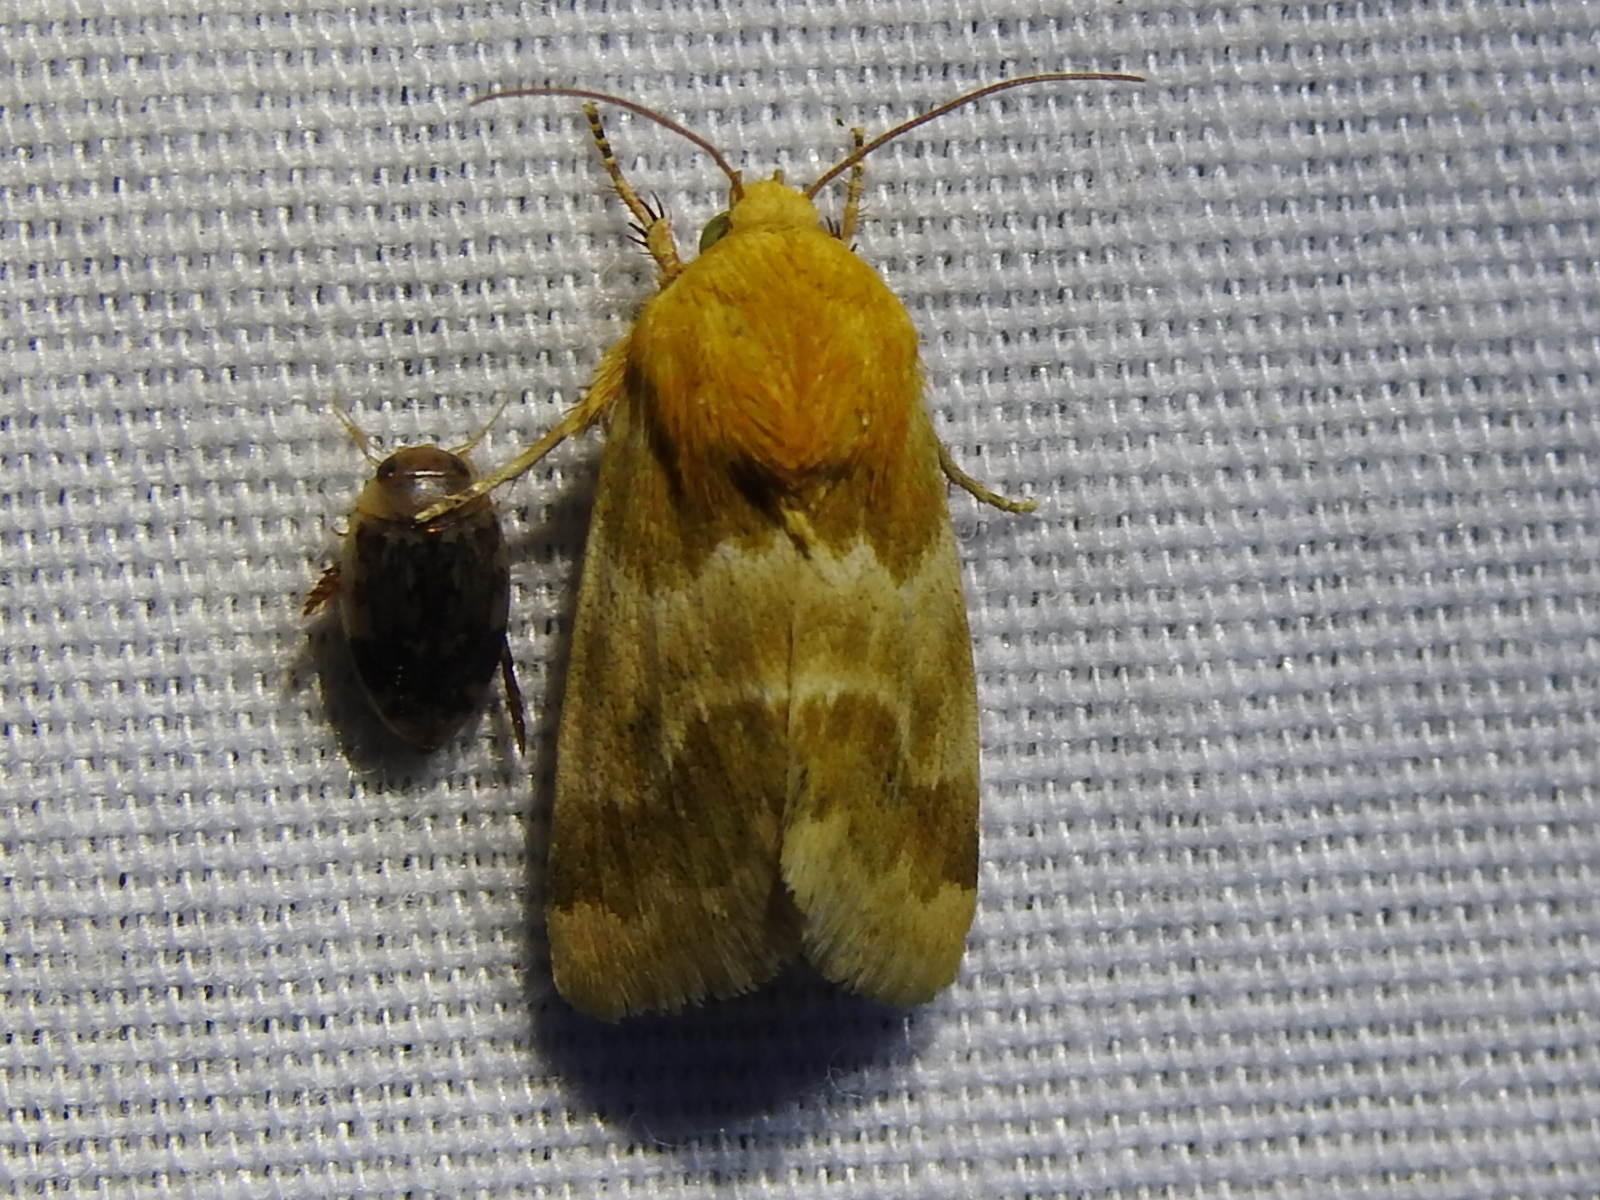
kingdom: Animalia
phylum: Arthropoda
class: Insecta
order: Lepidoptera
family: Noctuidae
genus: Schinia
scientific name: Schinia siren
